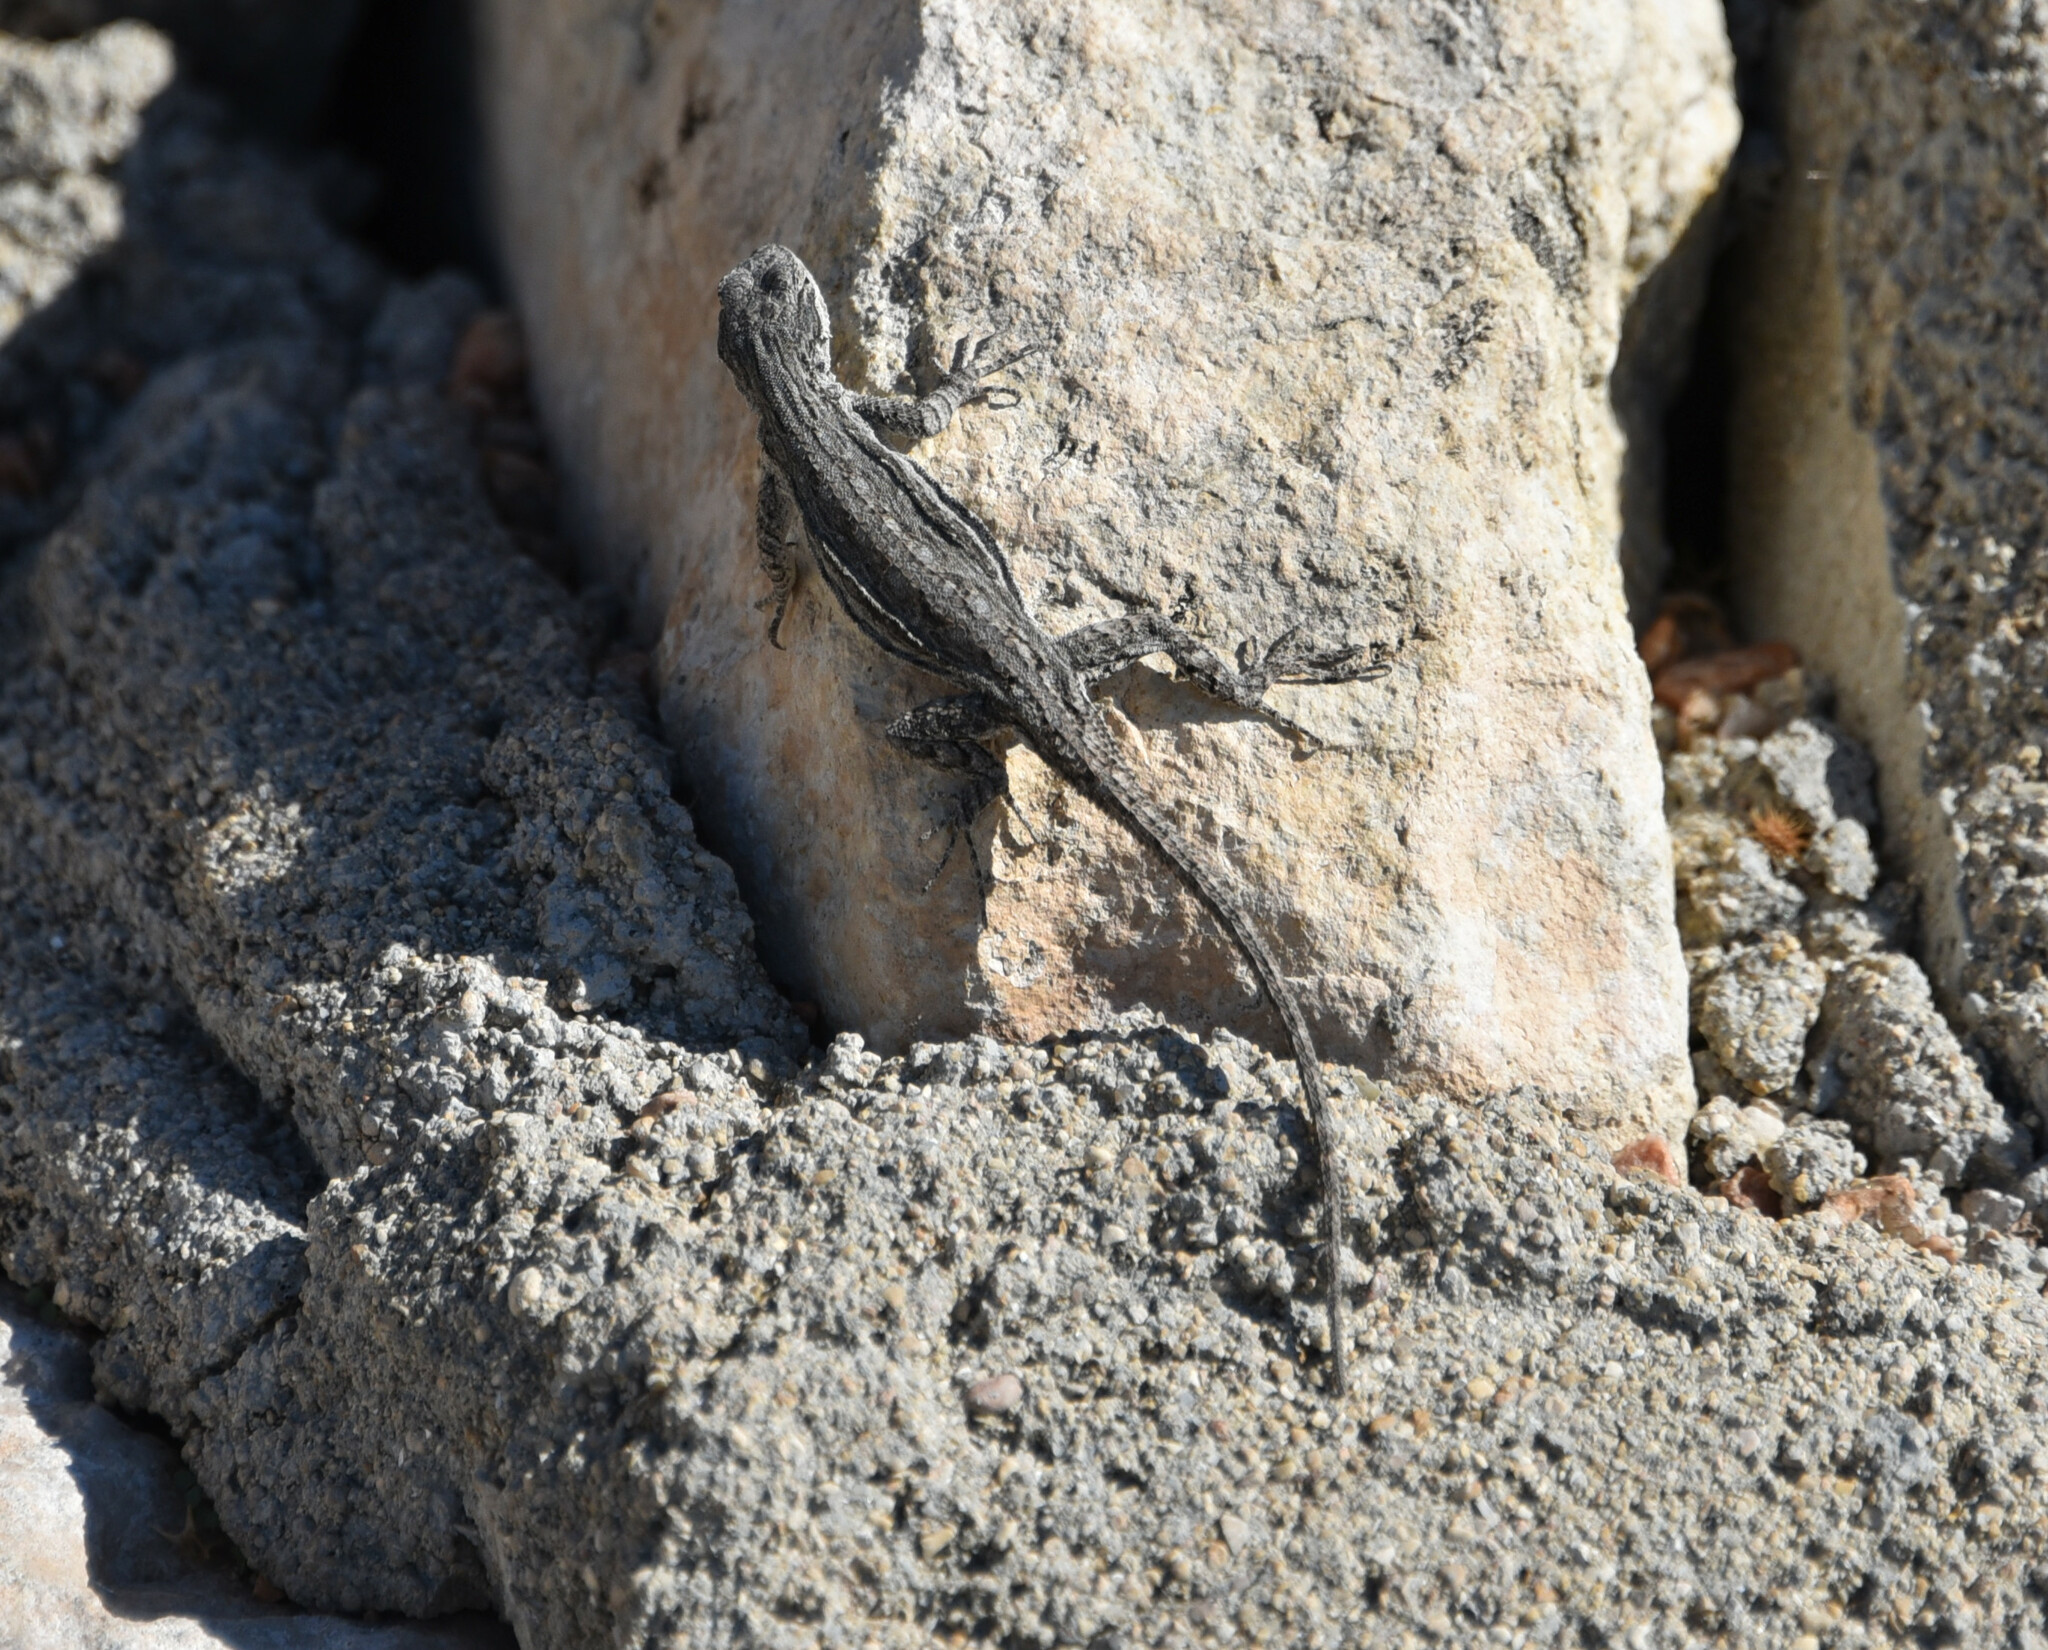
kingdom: Animalia
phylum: Chordata
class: Squamata
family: Phrynosomatidae
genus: Urosaurus
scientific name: Urosaurus ornatus
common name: Ornate tree lizard
